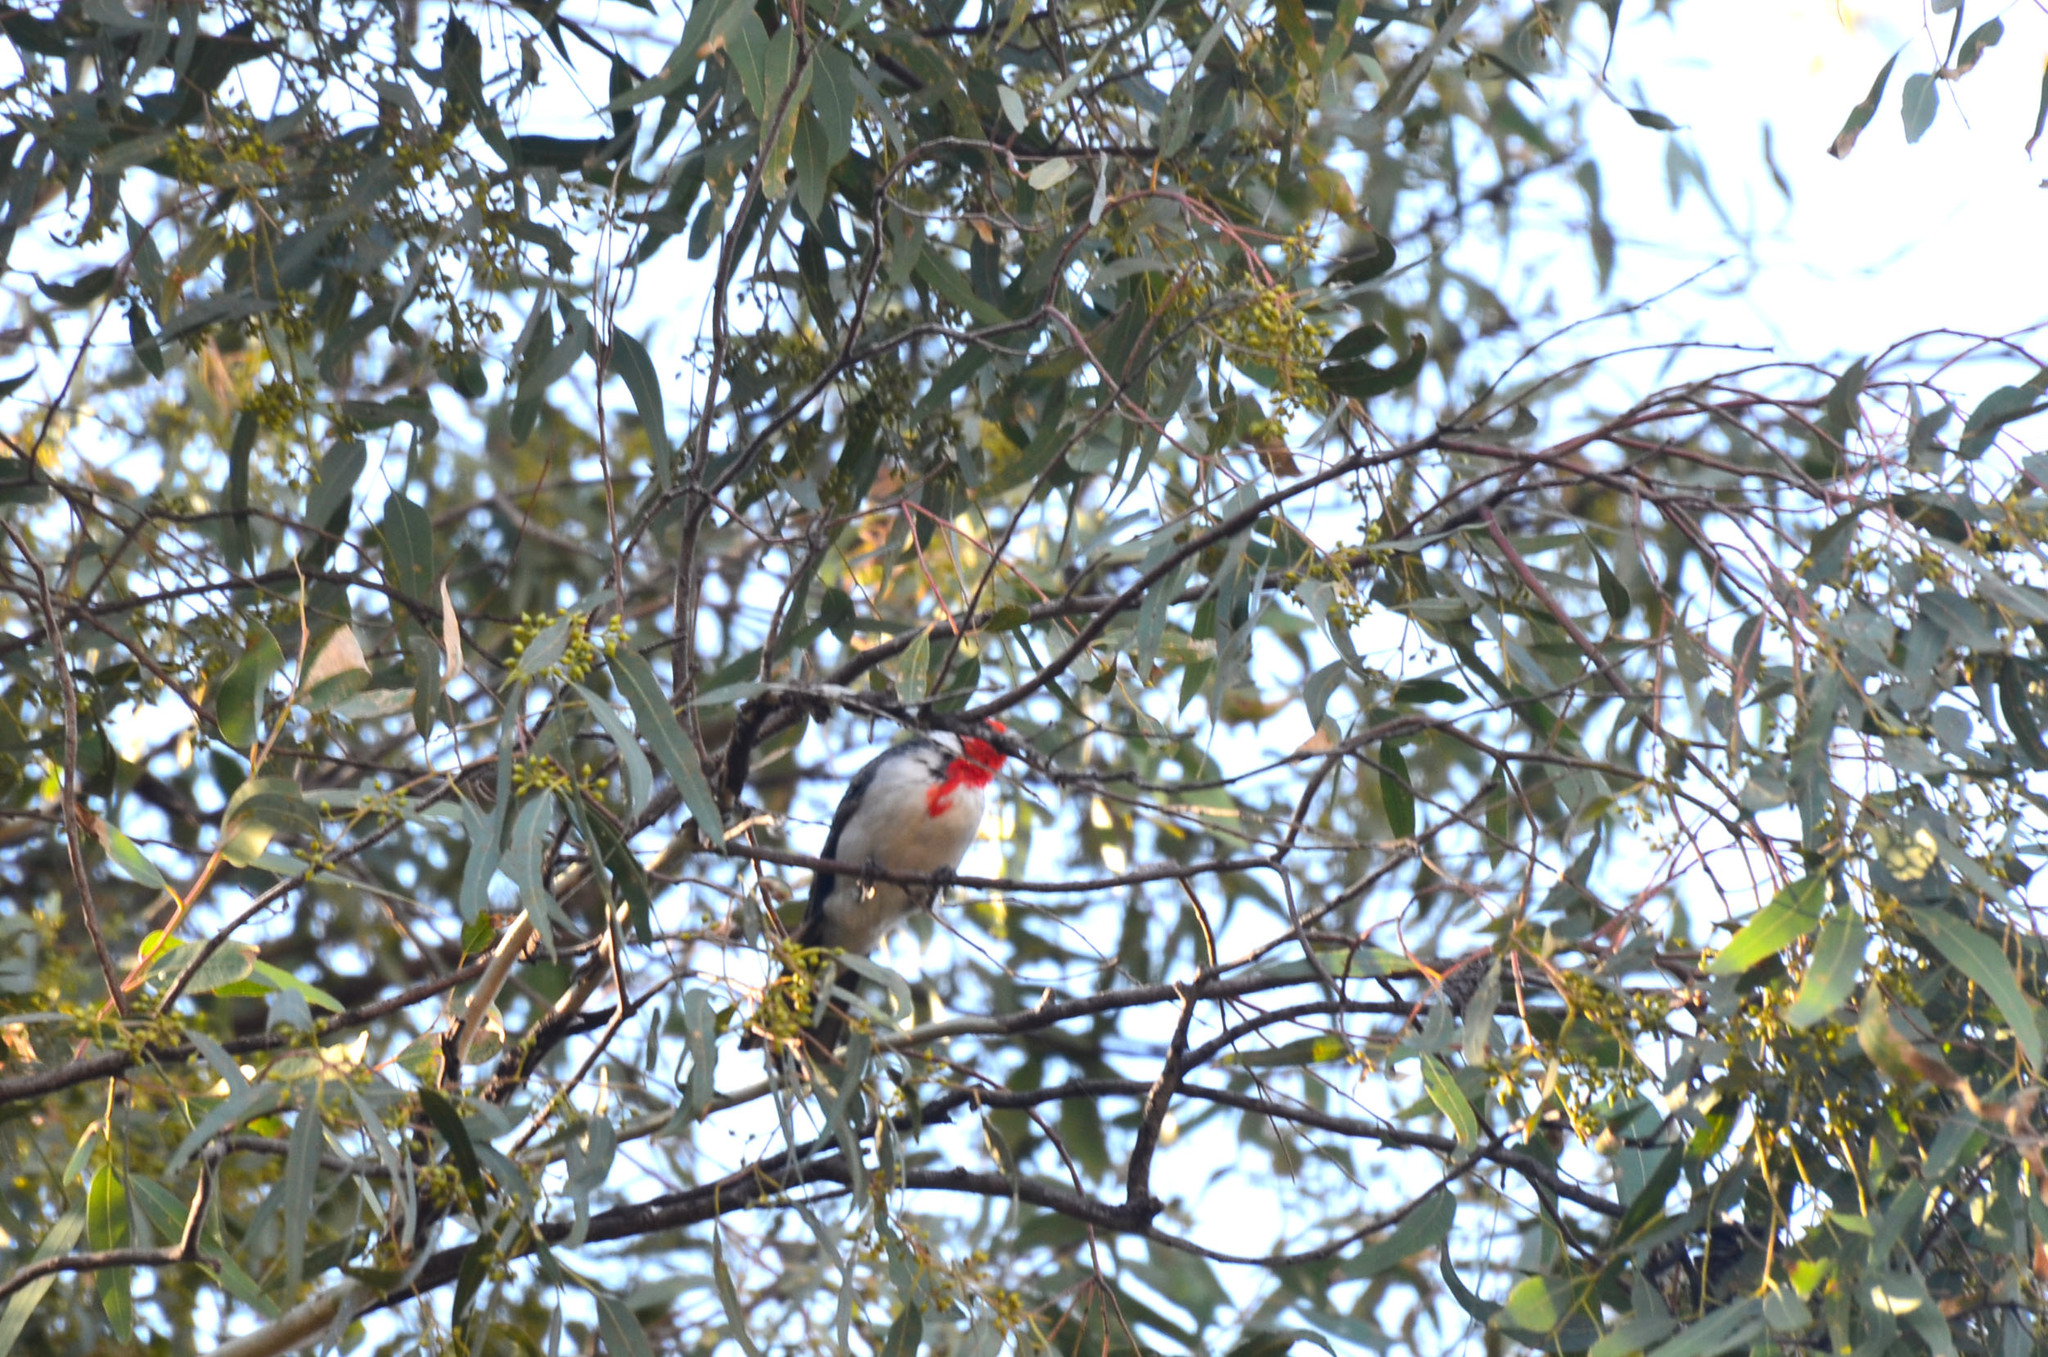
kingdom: Animalia
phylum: Chordata
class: Aves
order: Passeriformes
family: Thraupidae
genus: Paroaria
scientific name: Paroaria coronata
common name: Red-crested cardinal
